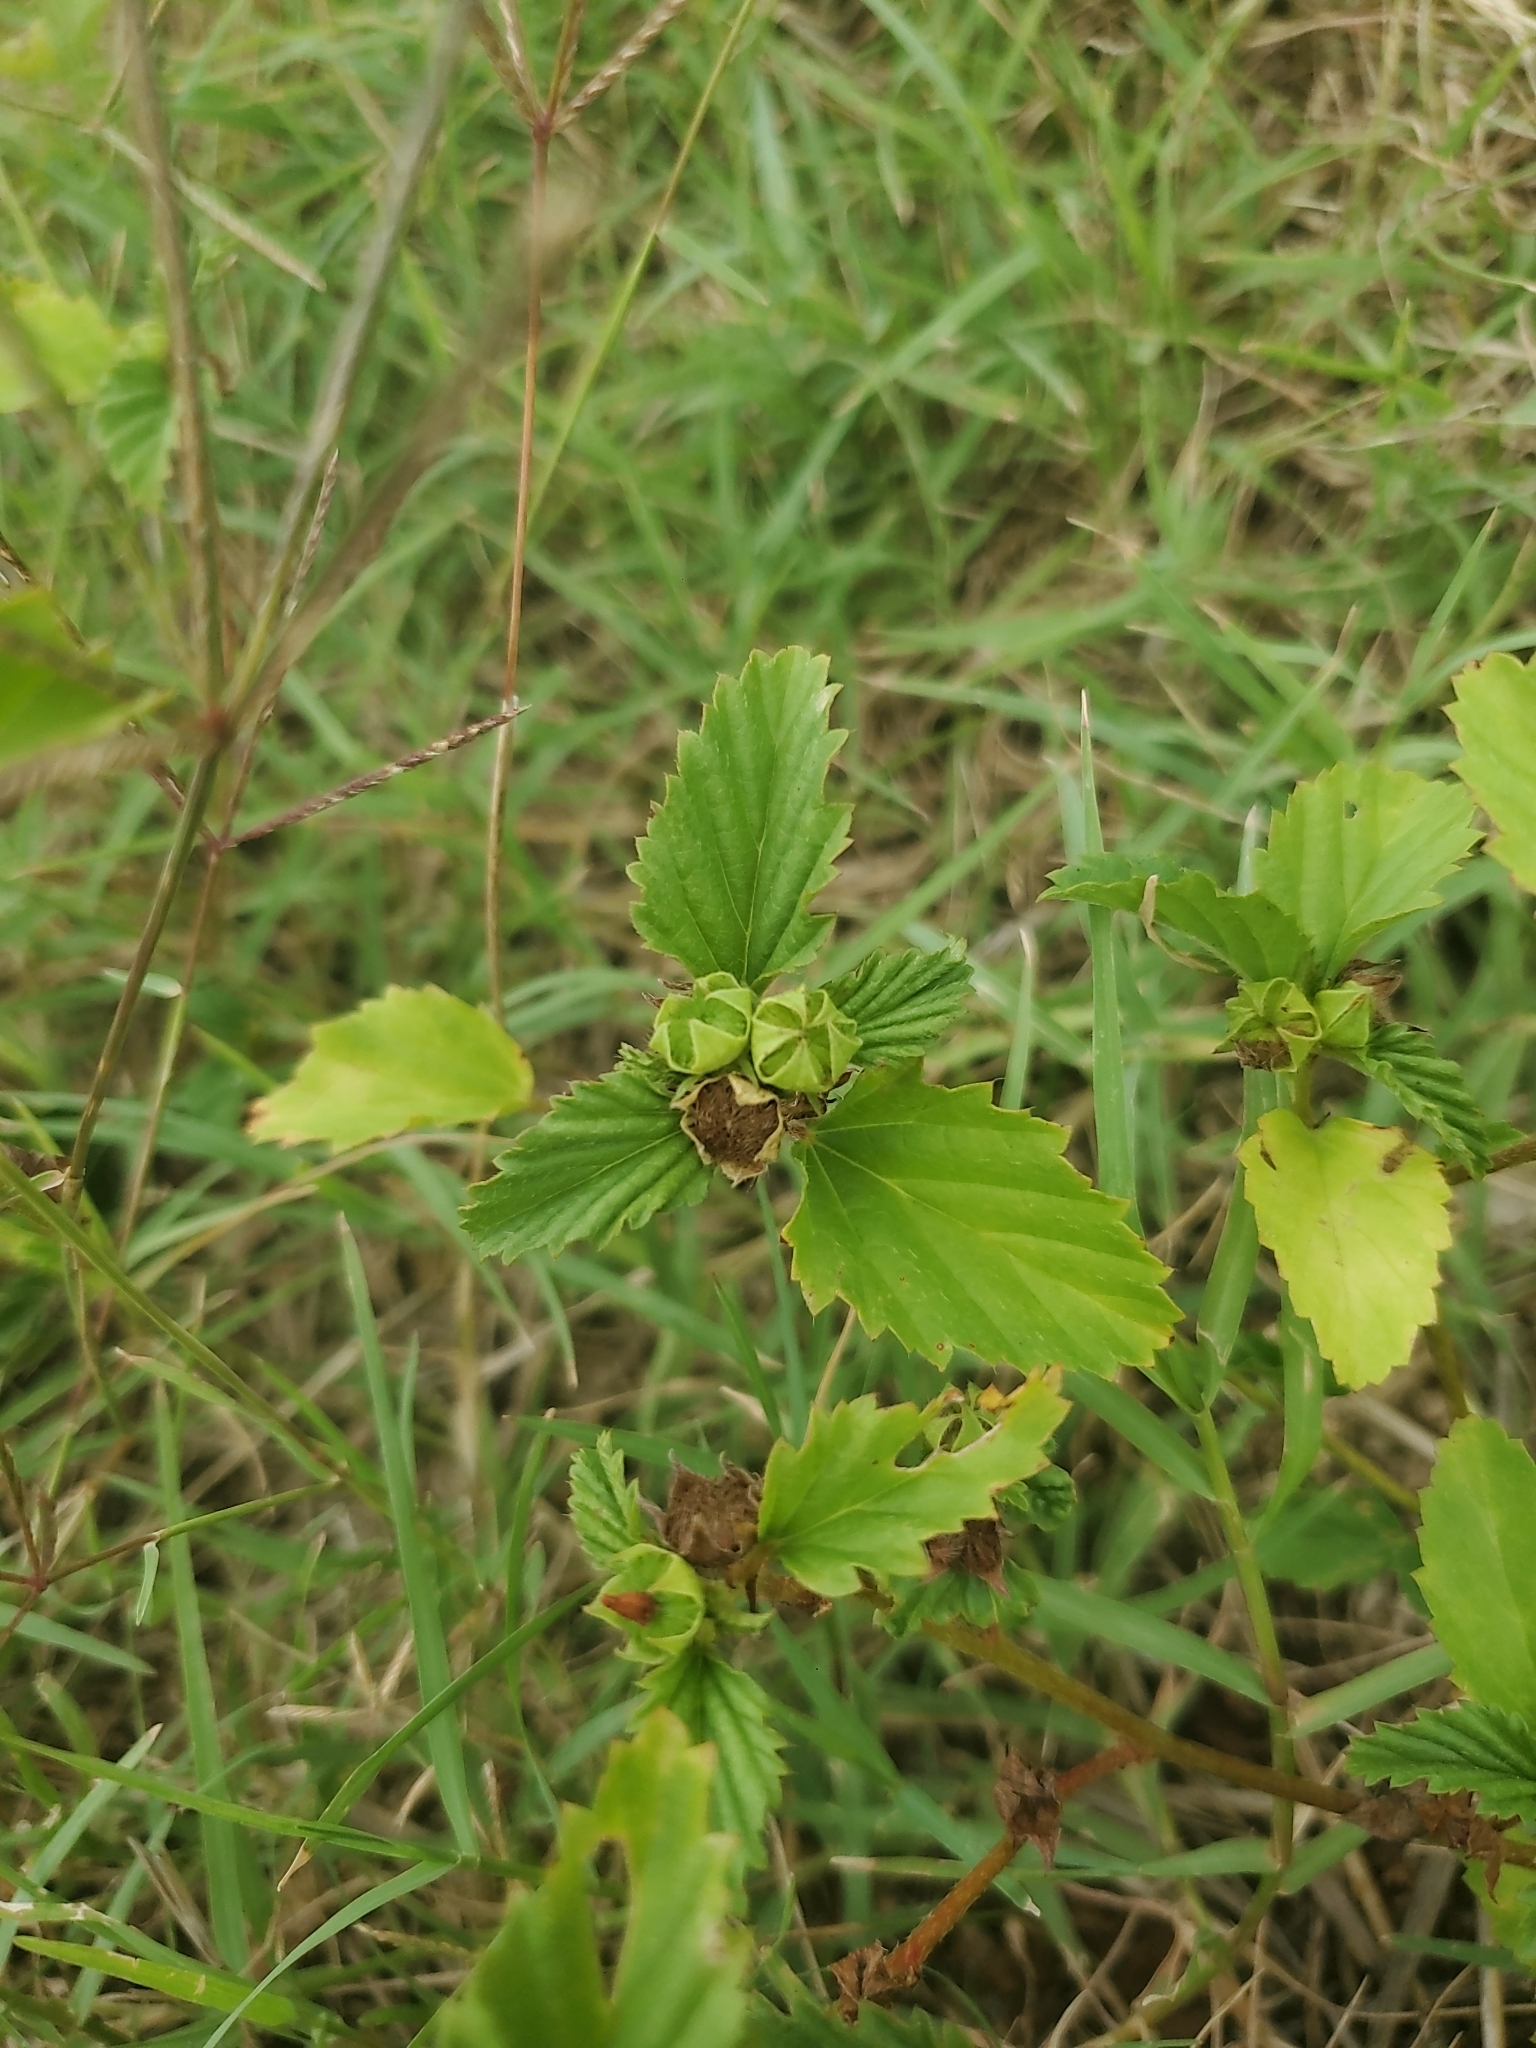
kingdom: Plantae
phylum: Tracheophyta
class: Magnoliopsida
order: Malvales
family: Malvaceae
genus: Malvastrum
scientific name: Malvastrum coromandelianum
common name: Threelobe false mallow
